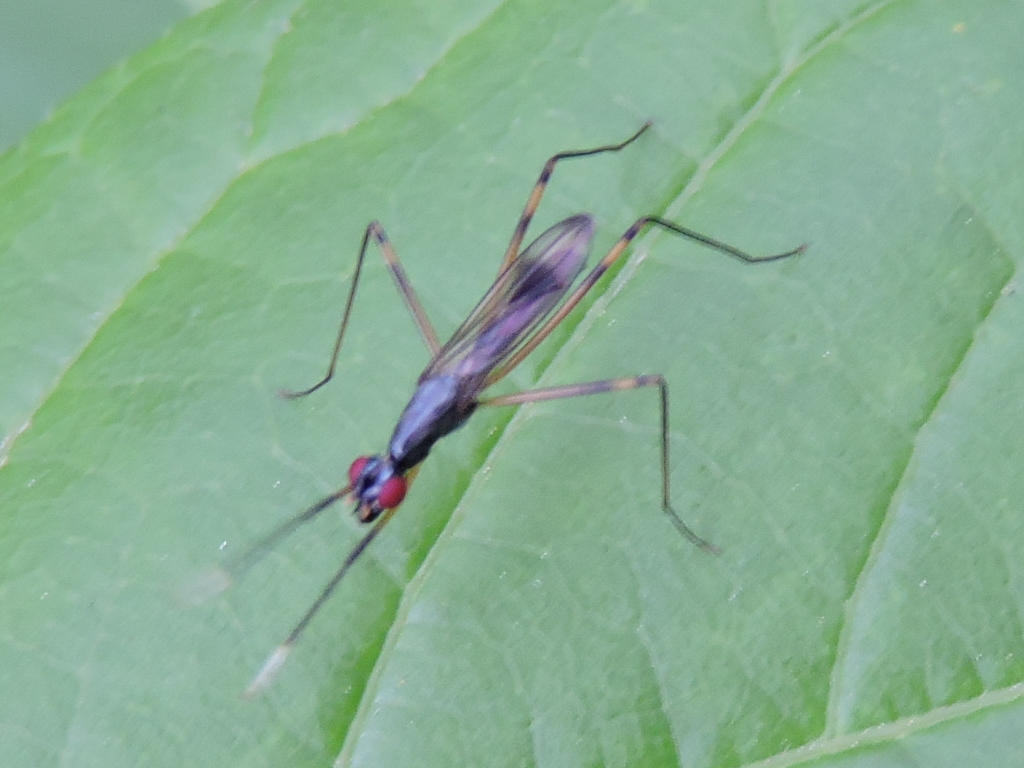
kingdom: Animalia
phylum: Arthropoda
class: Insecta
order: Diptera
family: Micropezidae
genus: Rainieria
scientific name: Rainieria antennaepes
